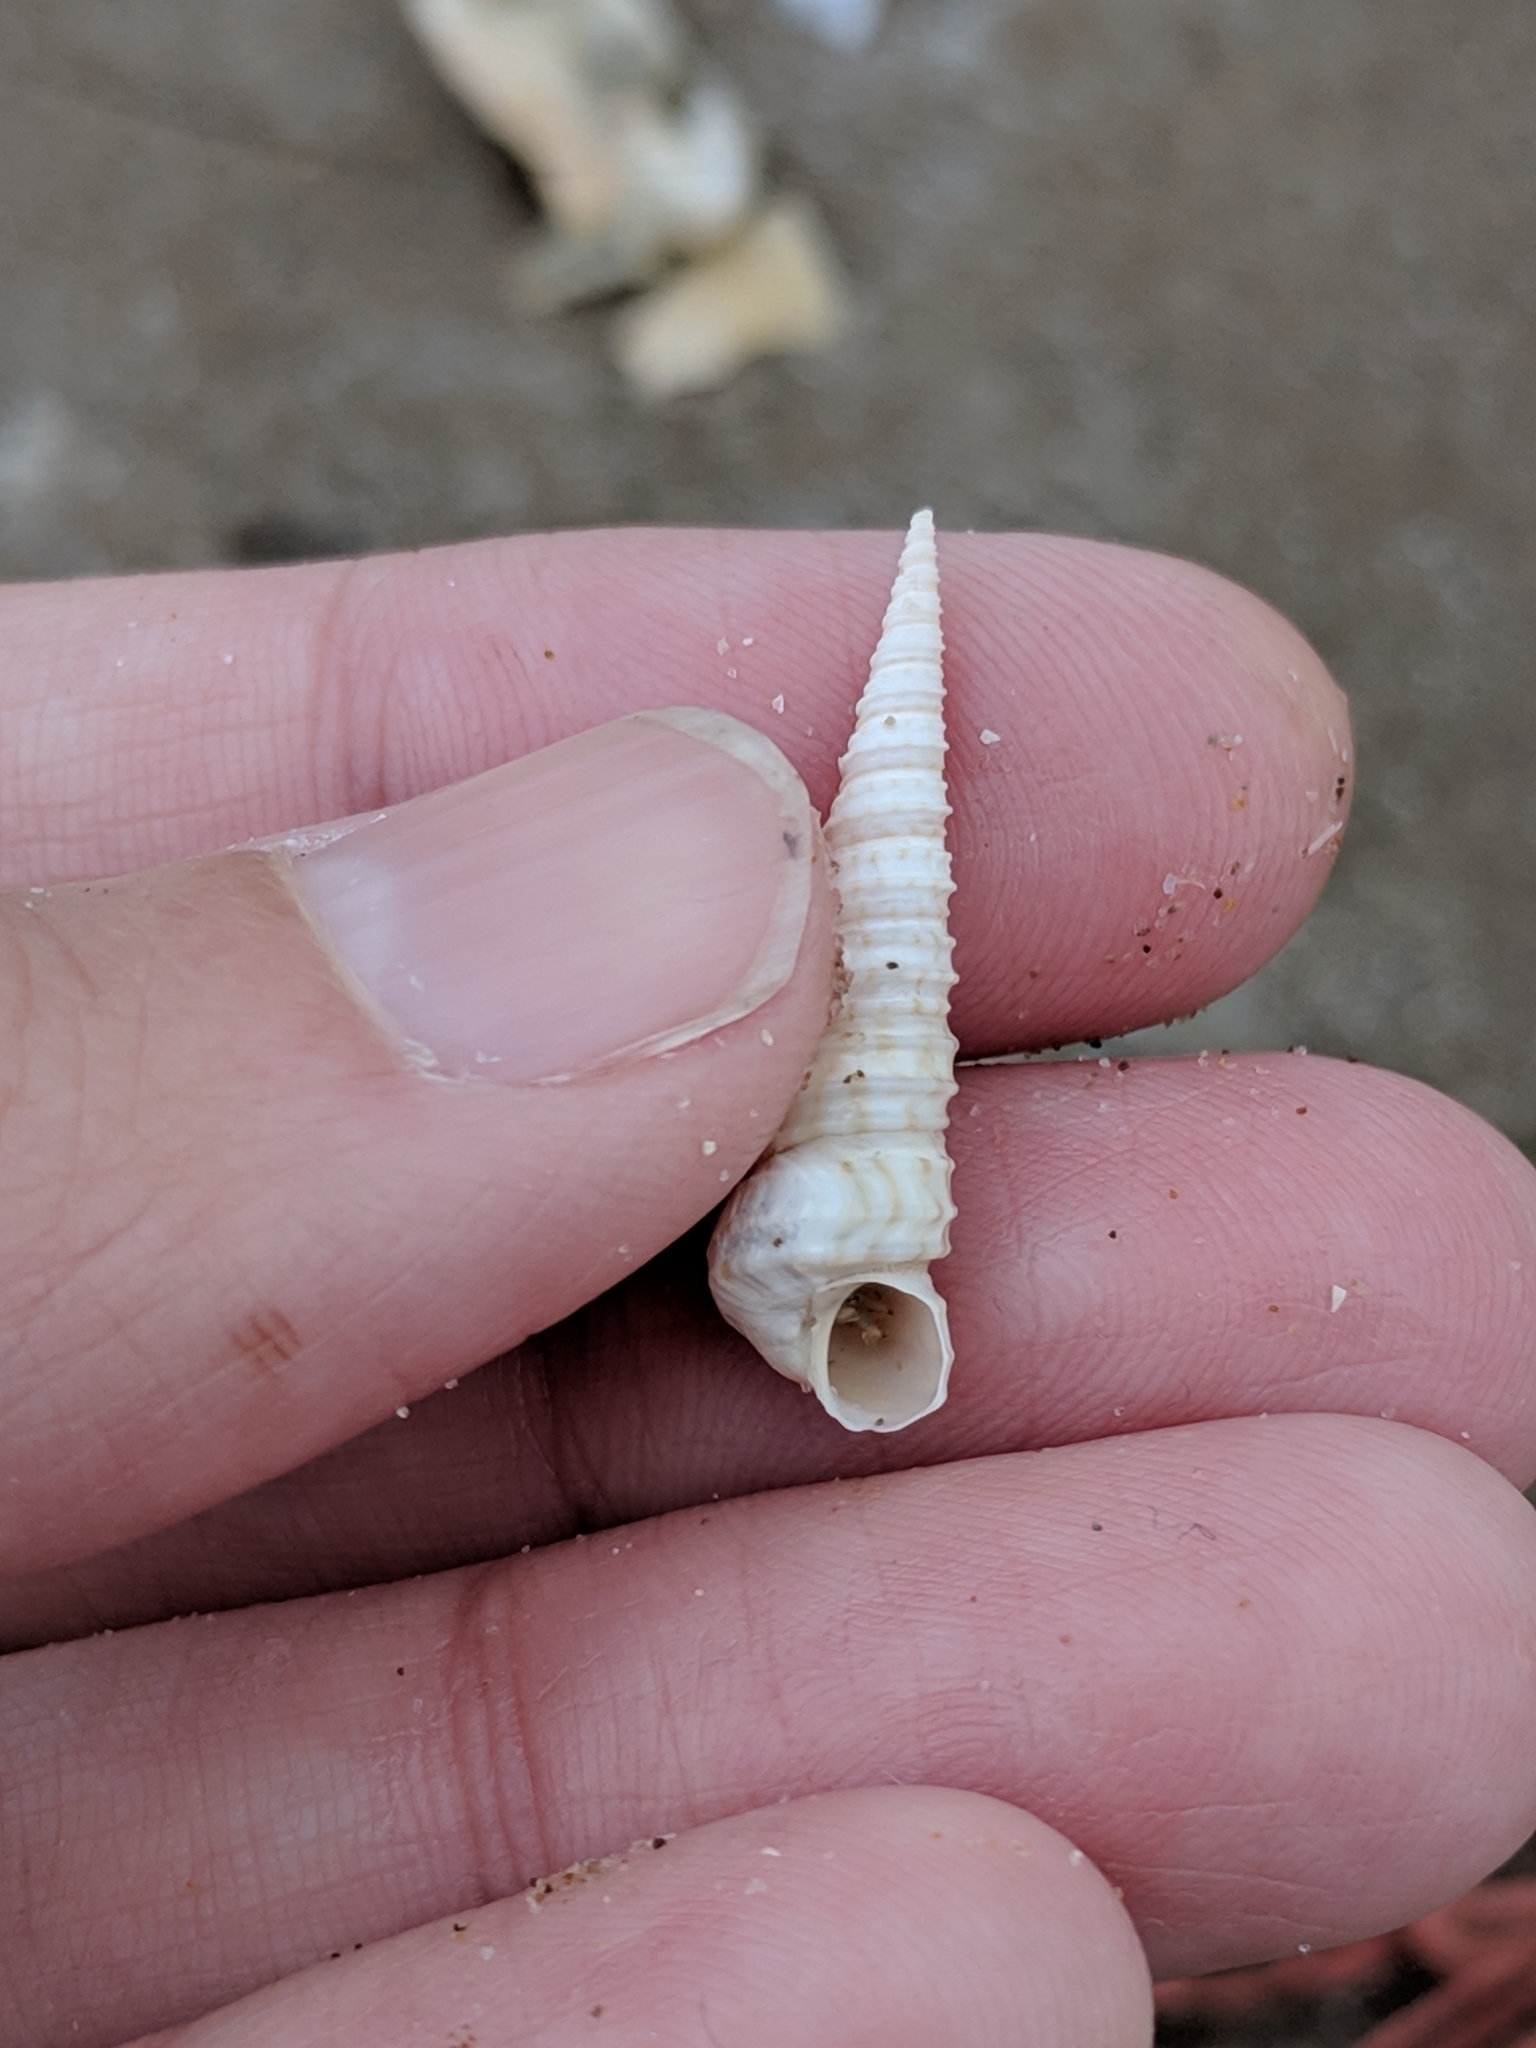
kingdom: Animalia
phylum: Mollusca
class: Gastropoda
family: Turritellidae
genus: Vermicularia
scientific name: Vermicularia fargoi
